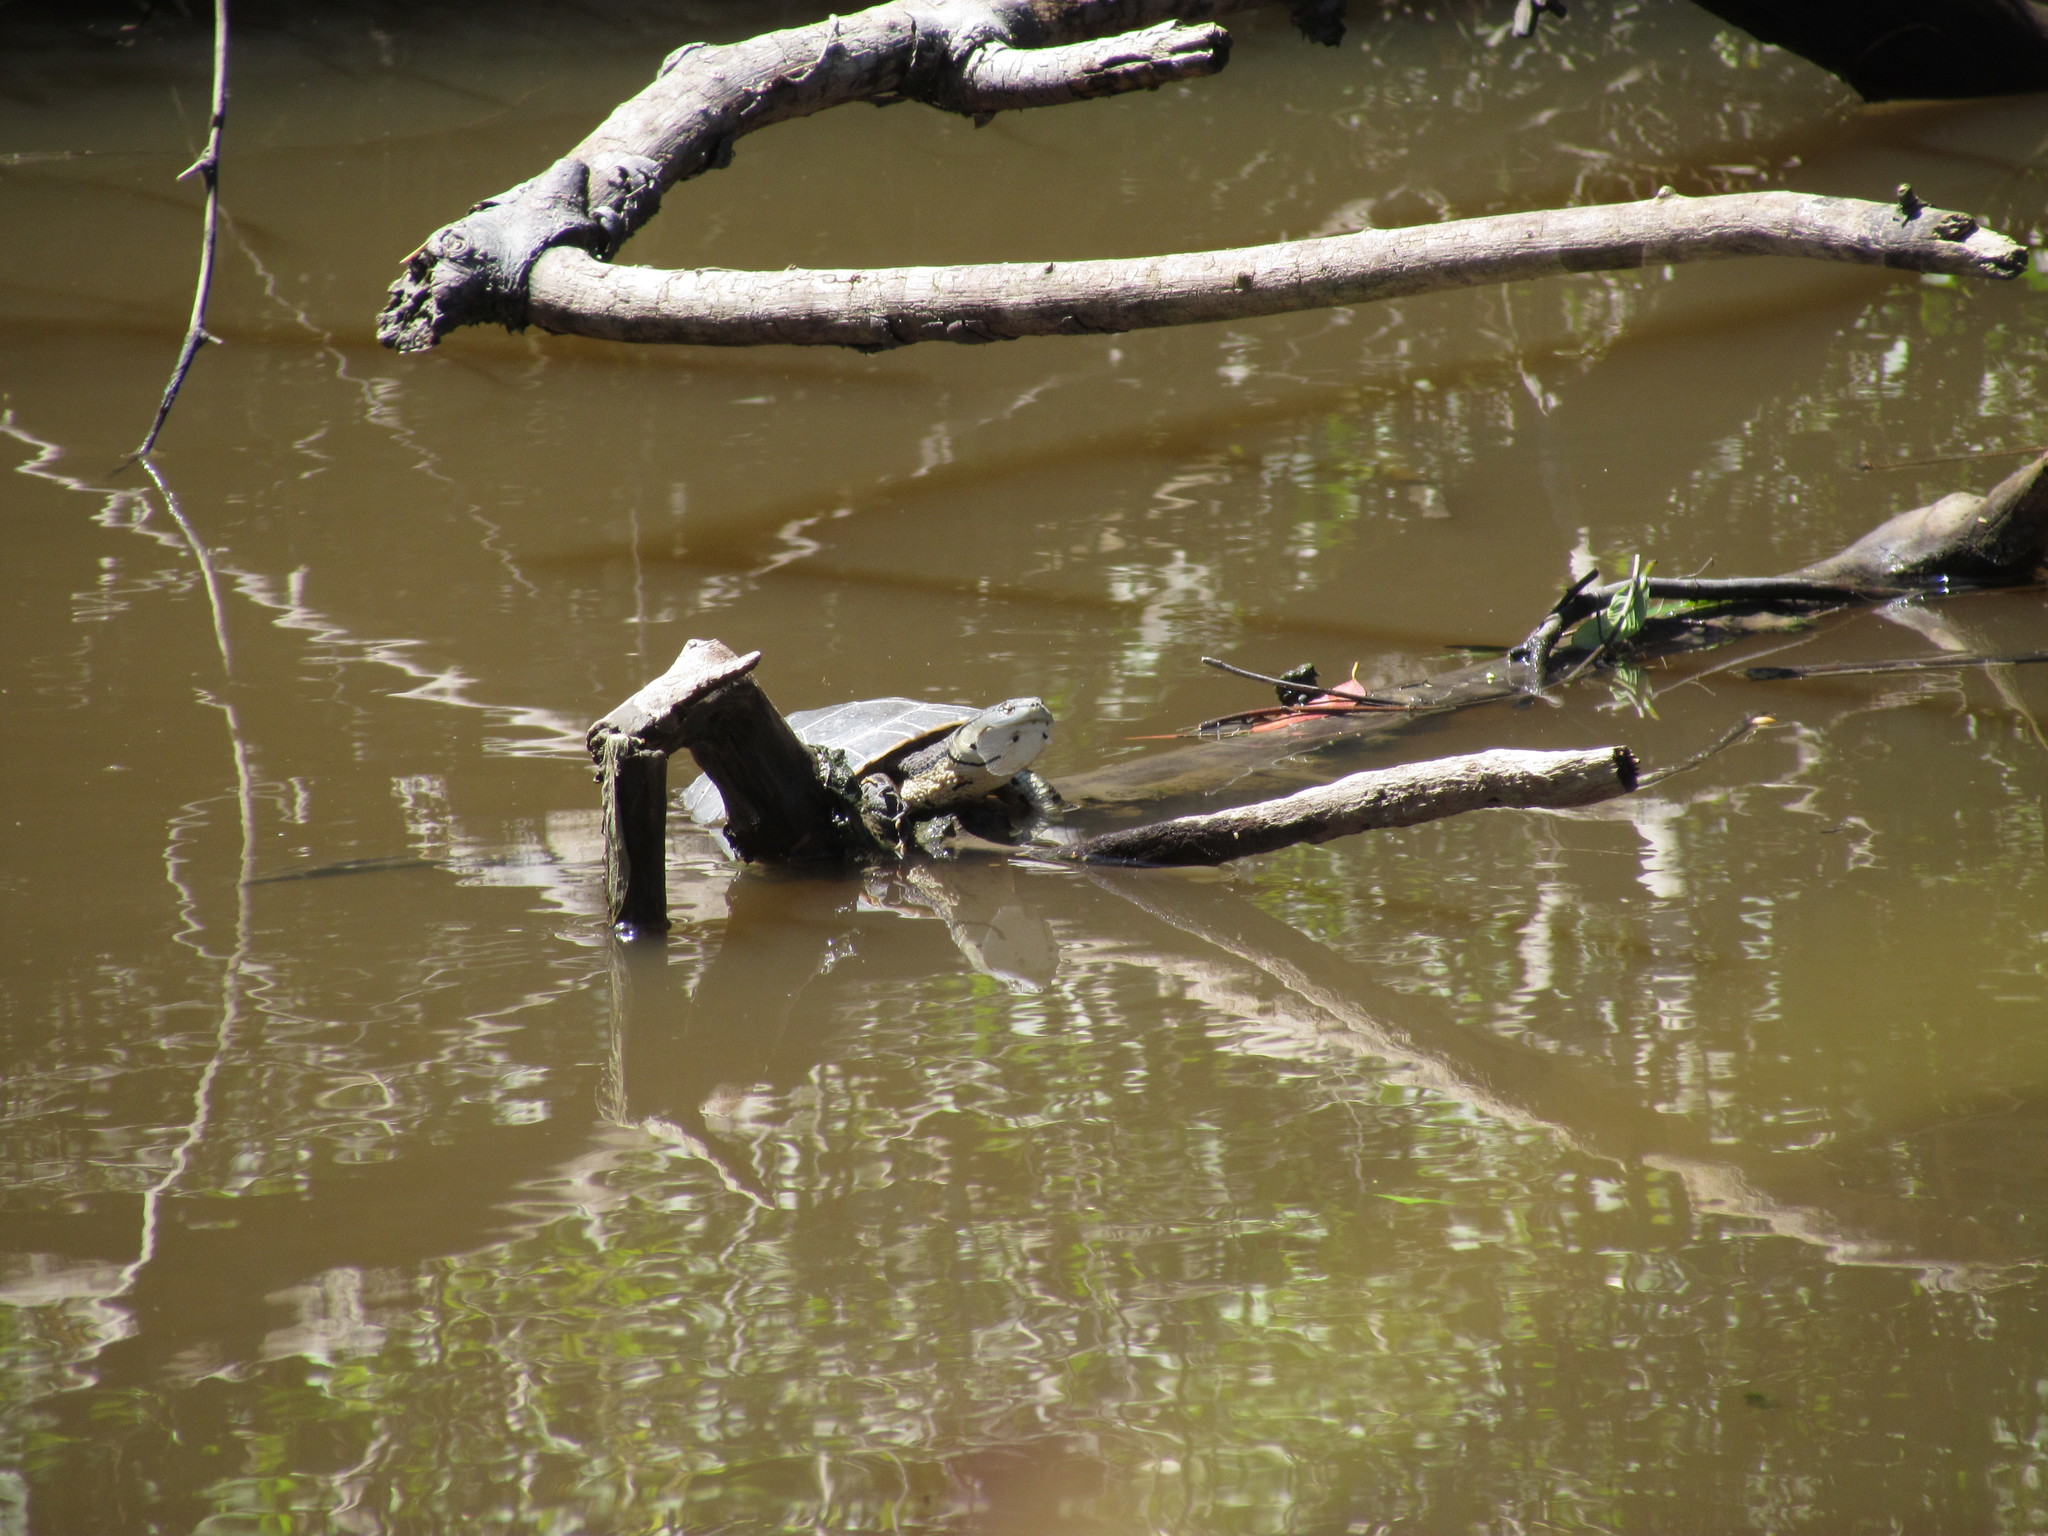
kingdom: Animalia
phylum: Chordata
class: Testudines
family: Chelidae
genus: Phrynops
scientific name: Phrynops hilarii
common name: Side-necked turtle of saint hillaire
